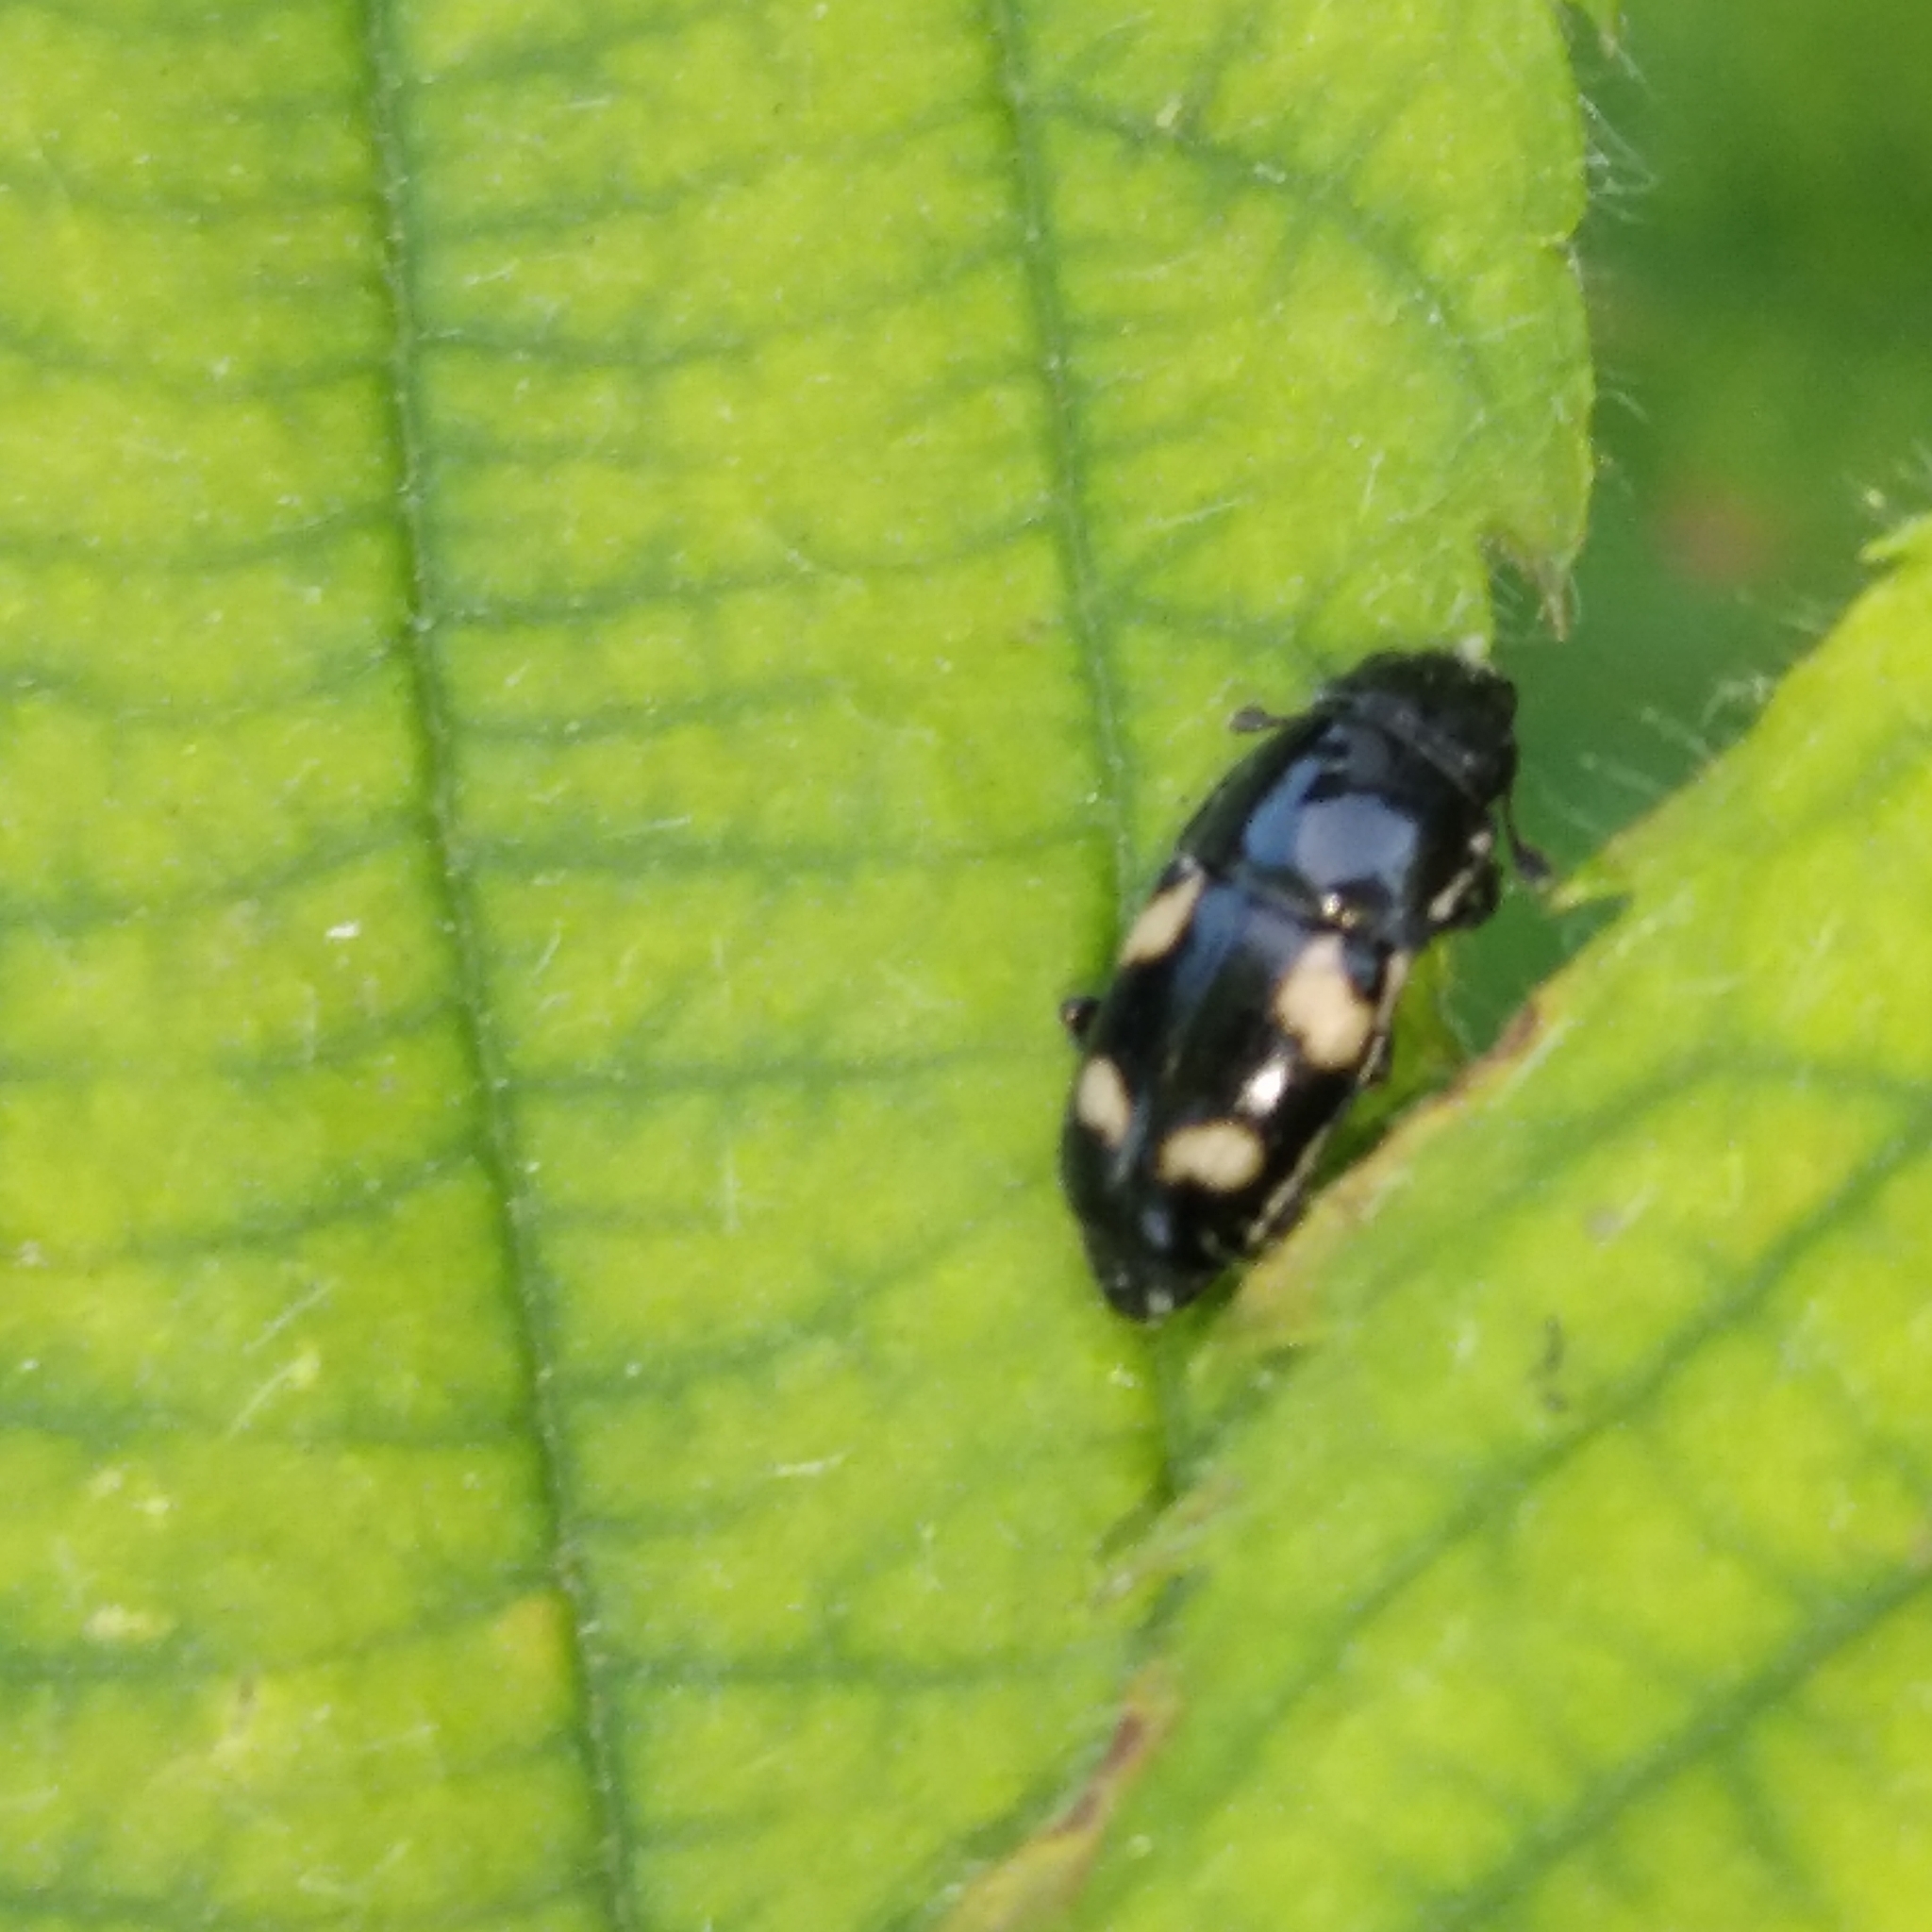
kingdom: Animalia
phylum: Arthropoda
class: Insecta
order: Coleoptera
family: Nitidulidae
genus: Glischrochilus
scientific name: Glischrochilus quadrisignatus
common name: Picnic beetle
